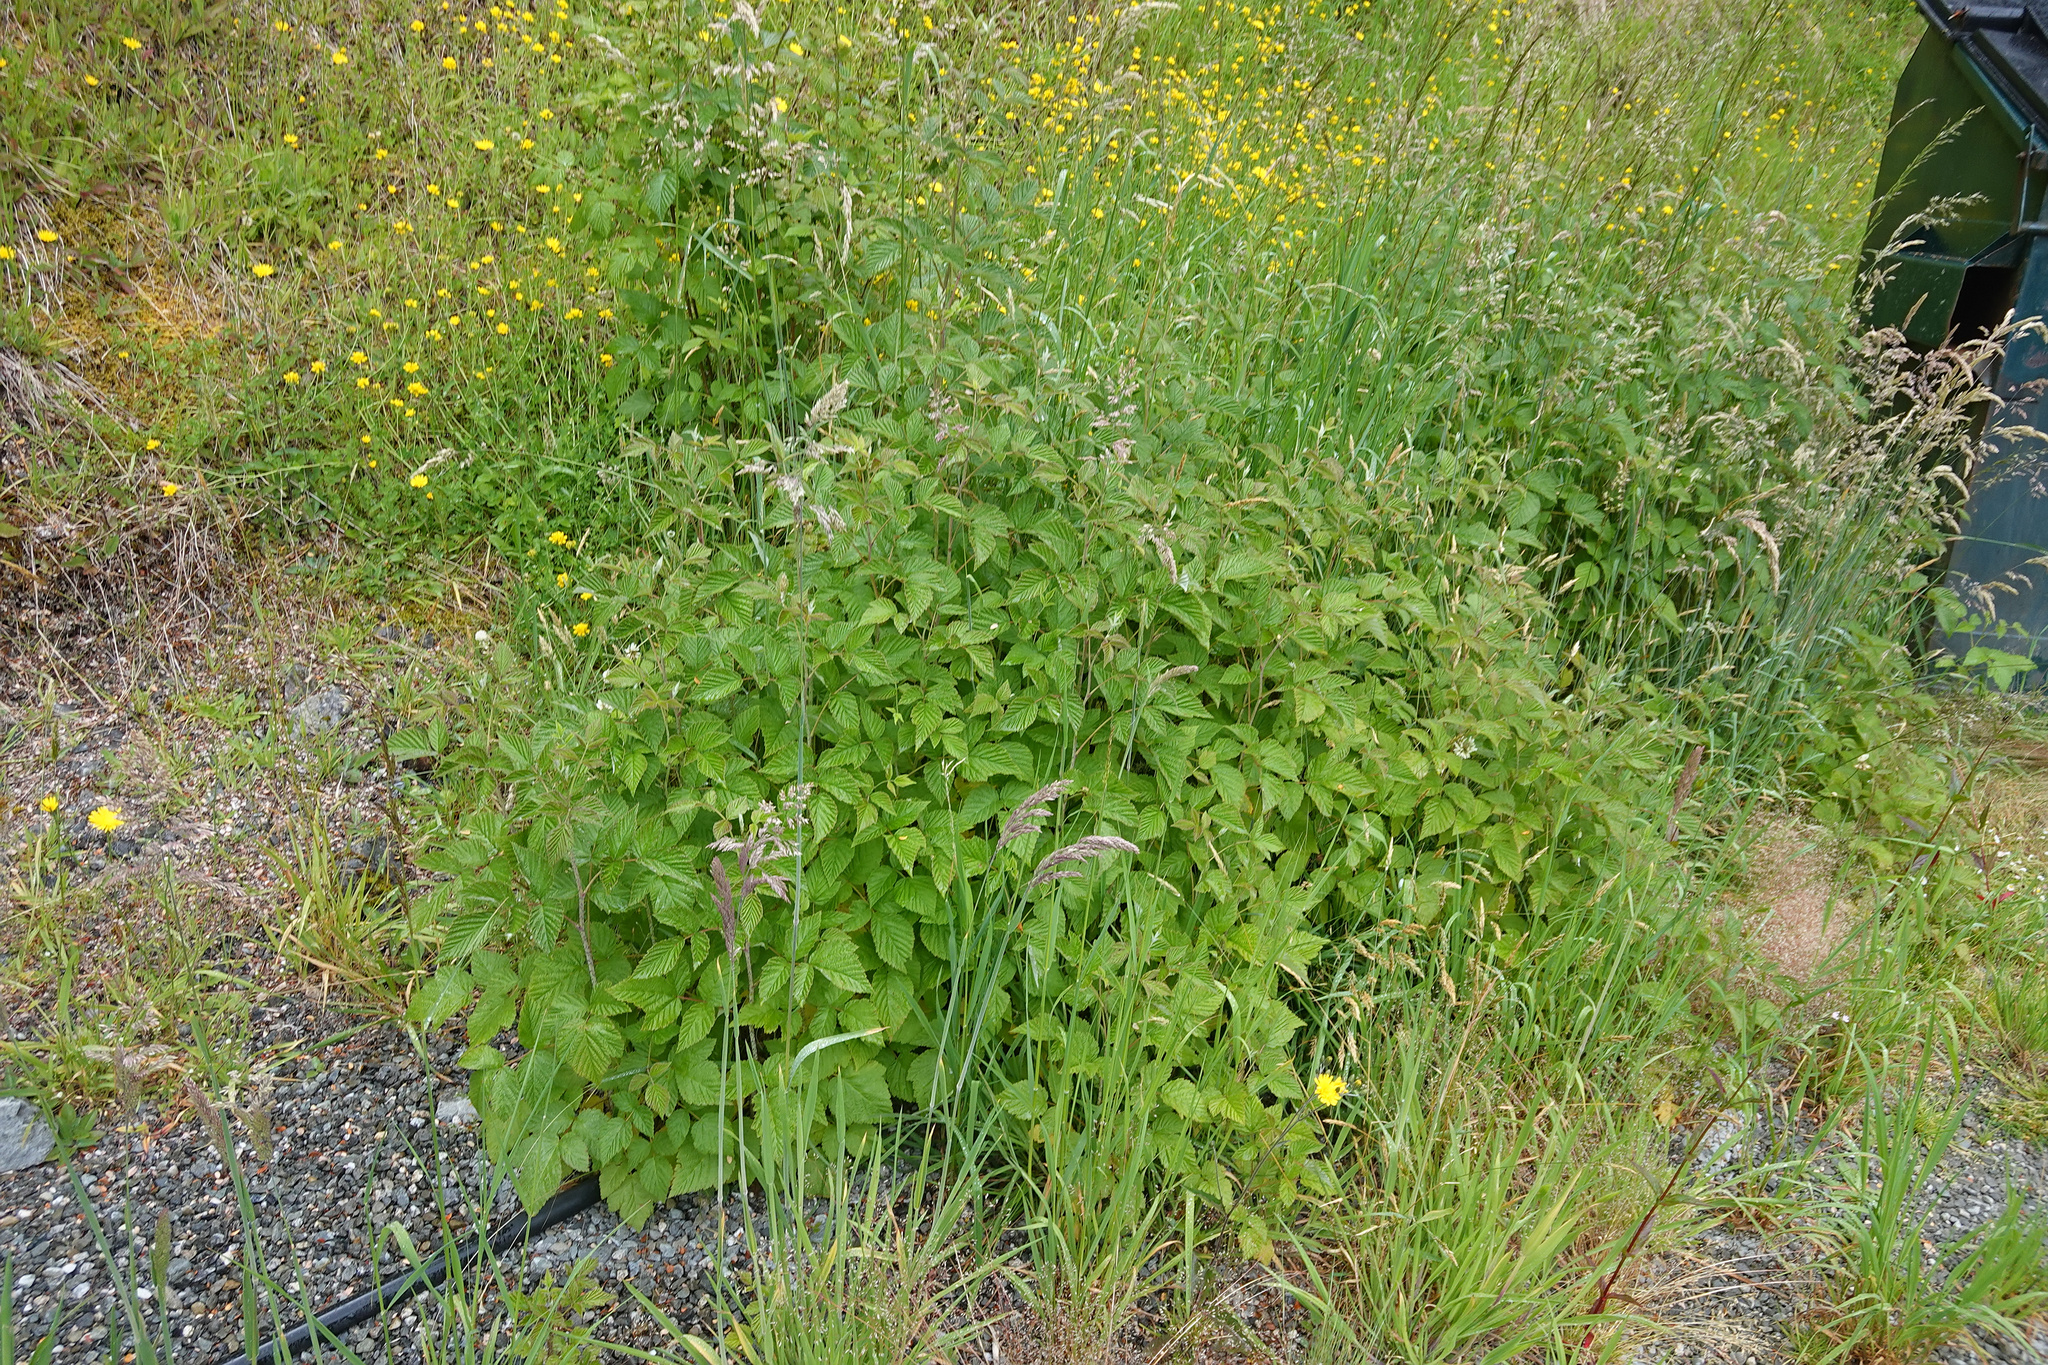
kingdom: Plantae
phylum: Tracheophyta
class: Magnoliopsida
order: Rosales
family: Rosaceae
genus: Rubus
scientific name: Rubus idaeus
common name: Raspberry
